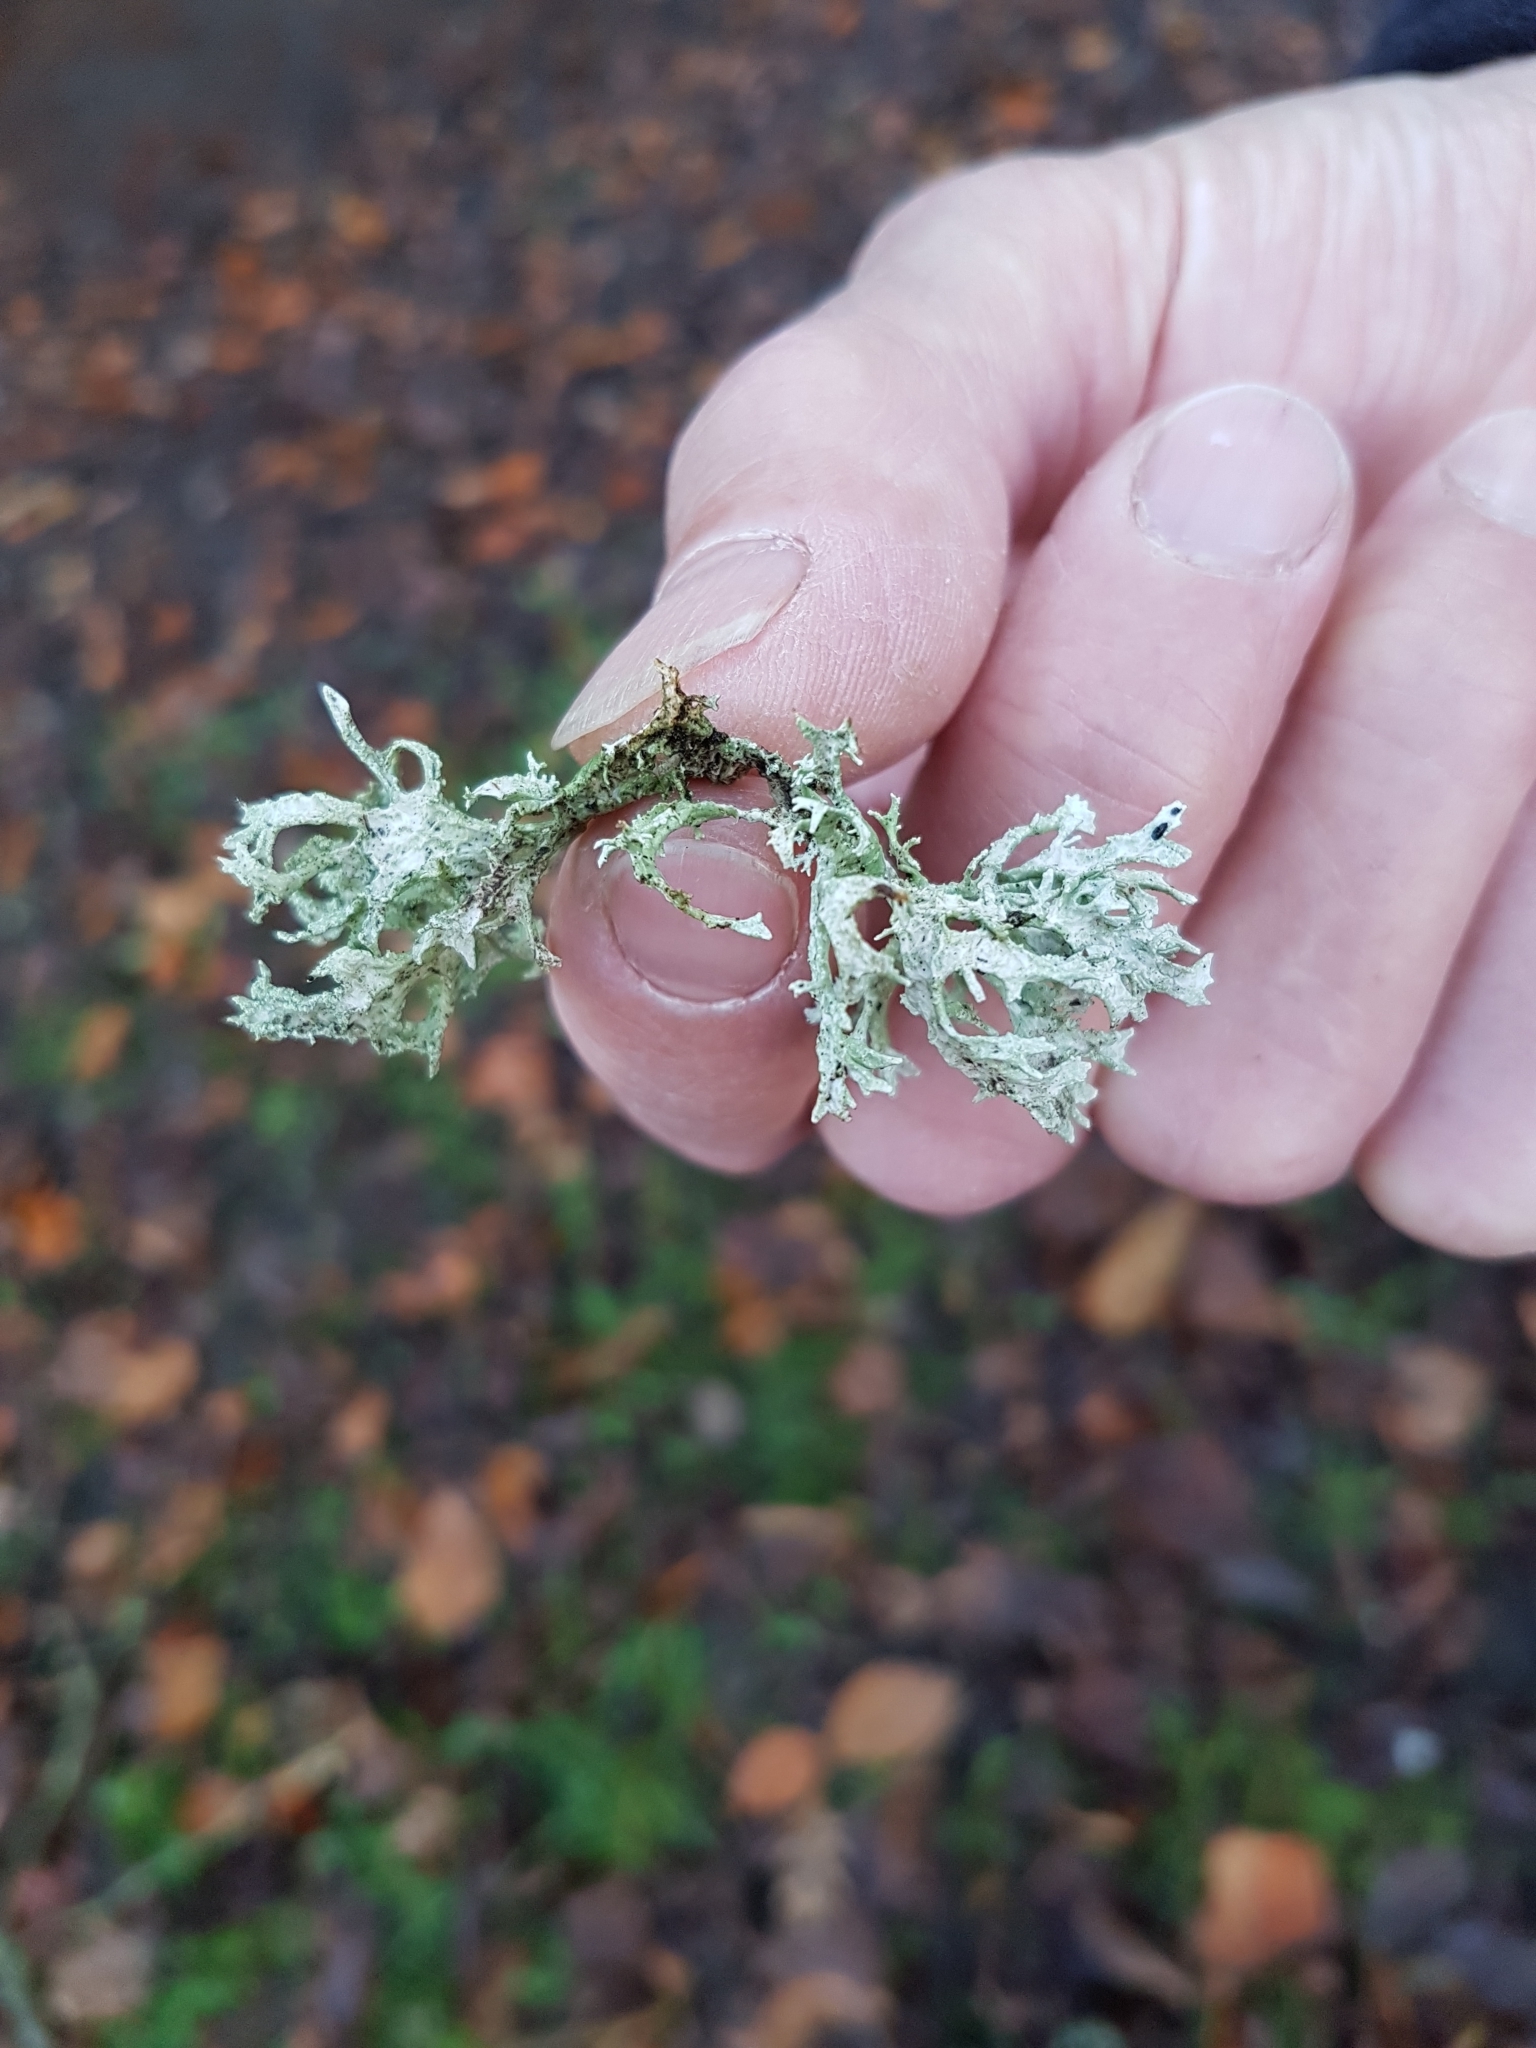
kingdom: Fungi
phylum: Ascomycota
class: Lecanoromycetes
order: Lecanorales
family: Parmeliaceae
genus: Evernia
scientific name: Evernia prunastri
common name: Oak moss
